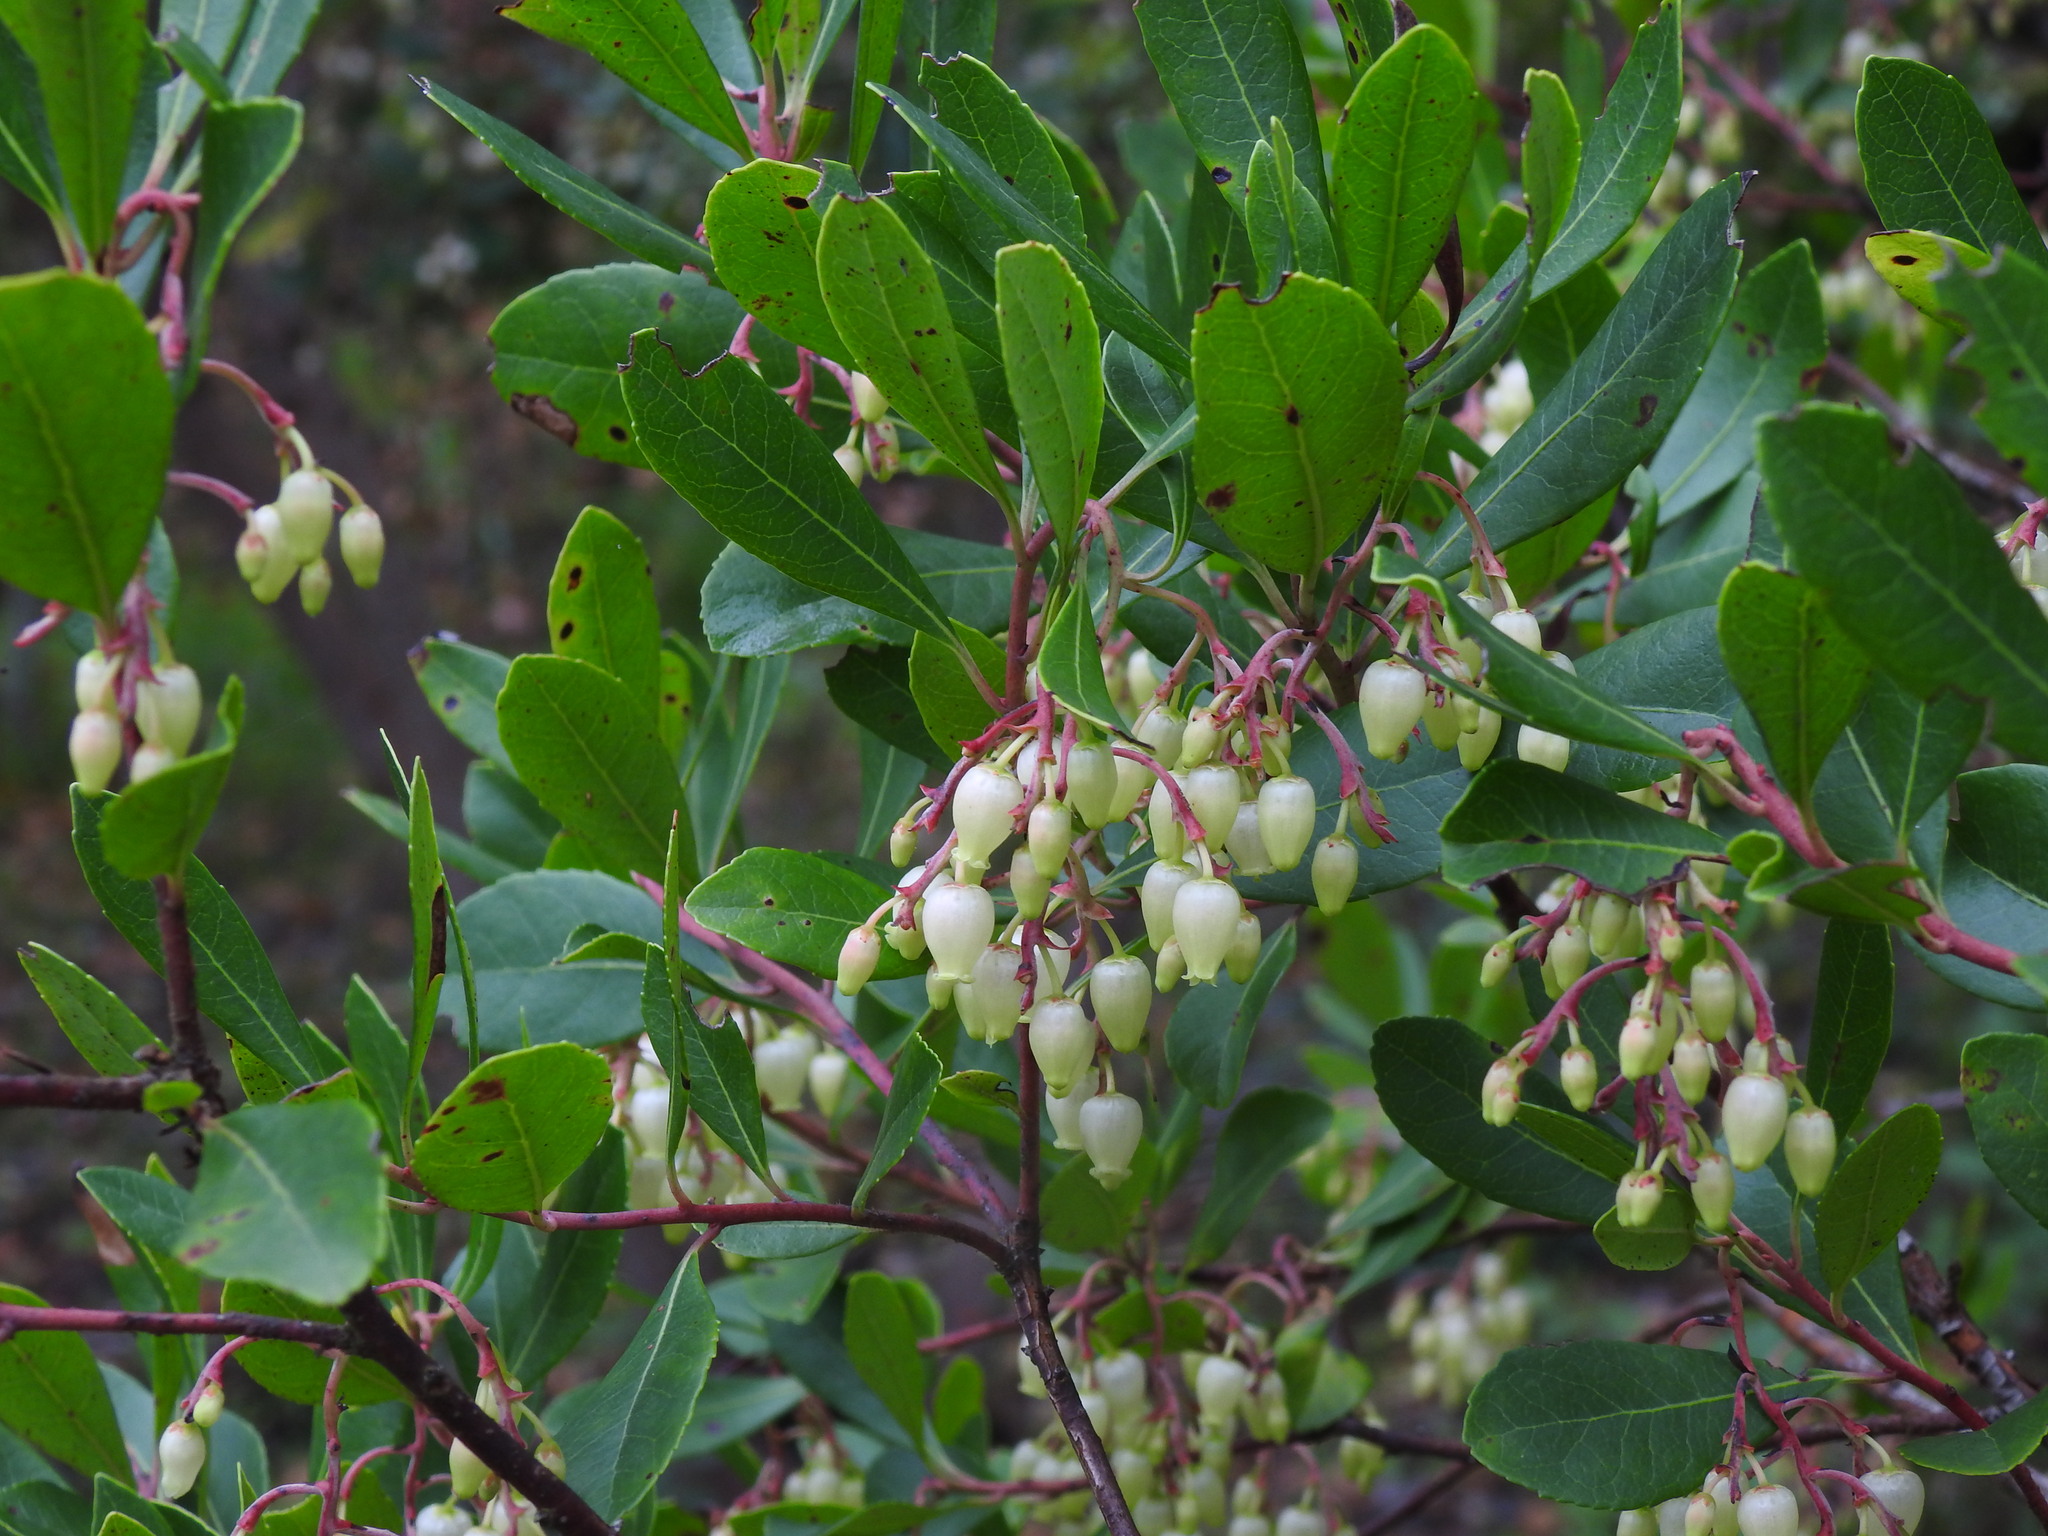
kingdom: Plantae
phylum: Tracheophyta
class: Magnoliopsida
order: Ericales
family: Ericaceae
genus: Arbutus
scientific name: Arbutus unedo
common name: Strawberry-tree
